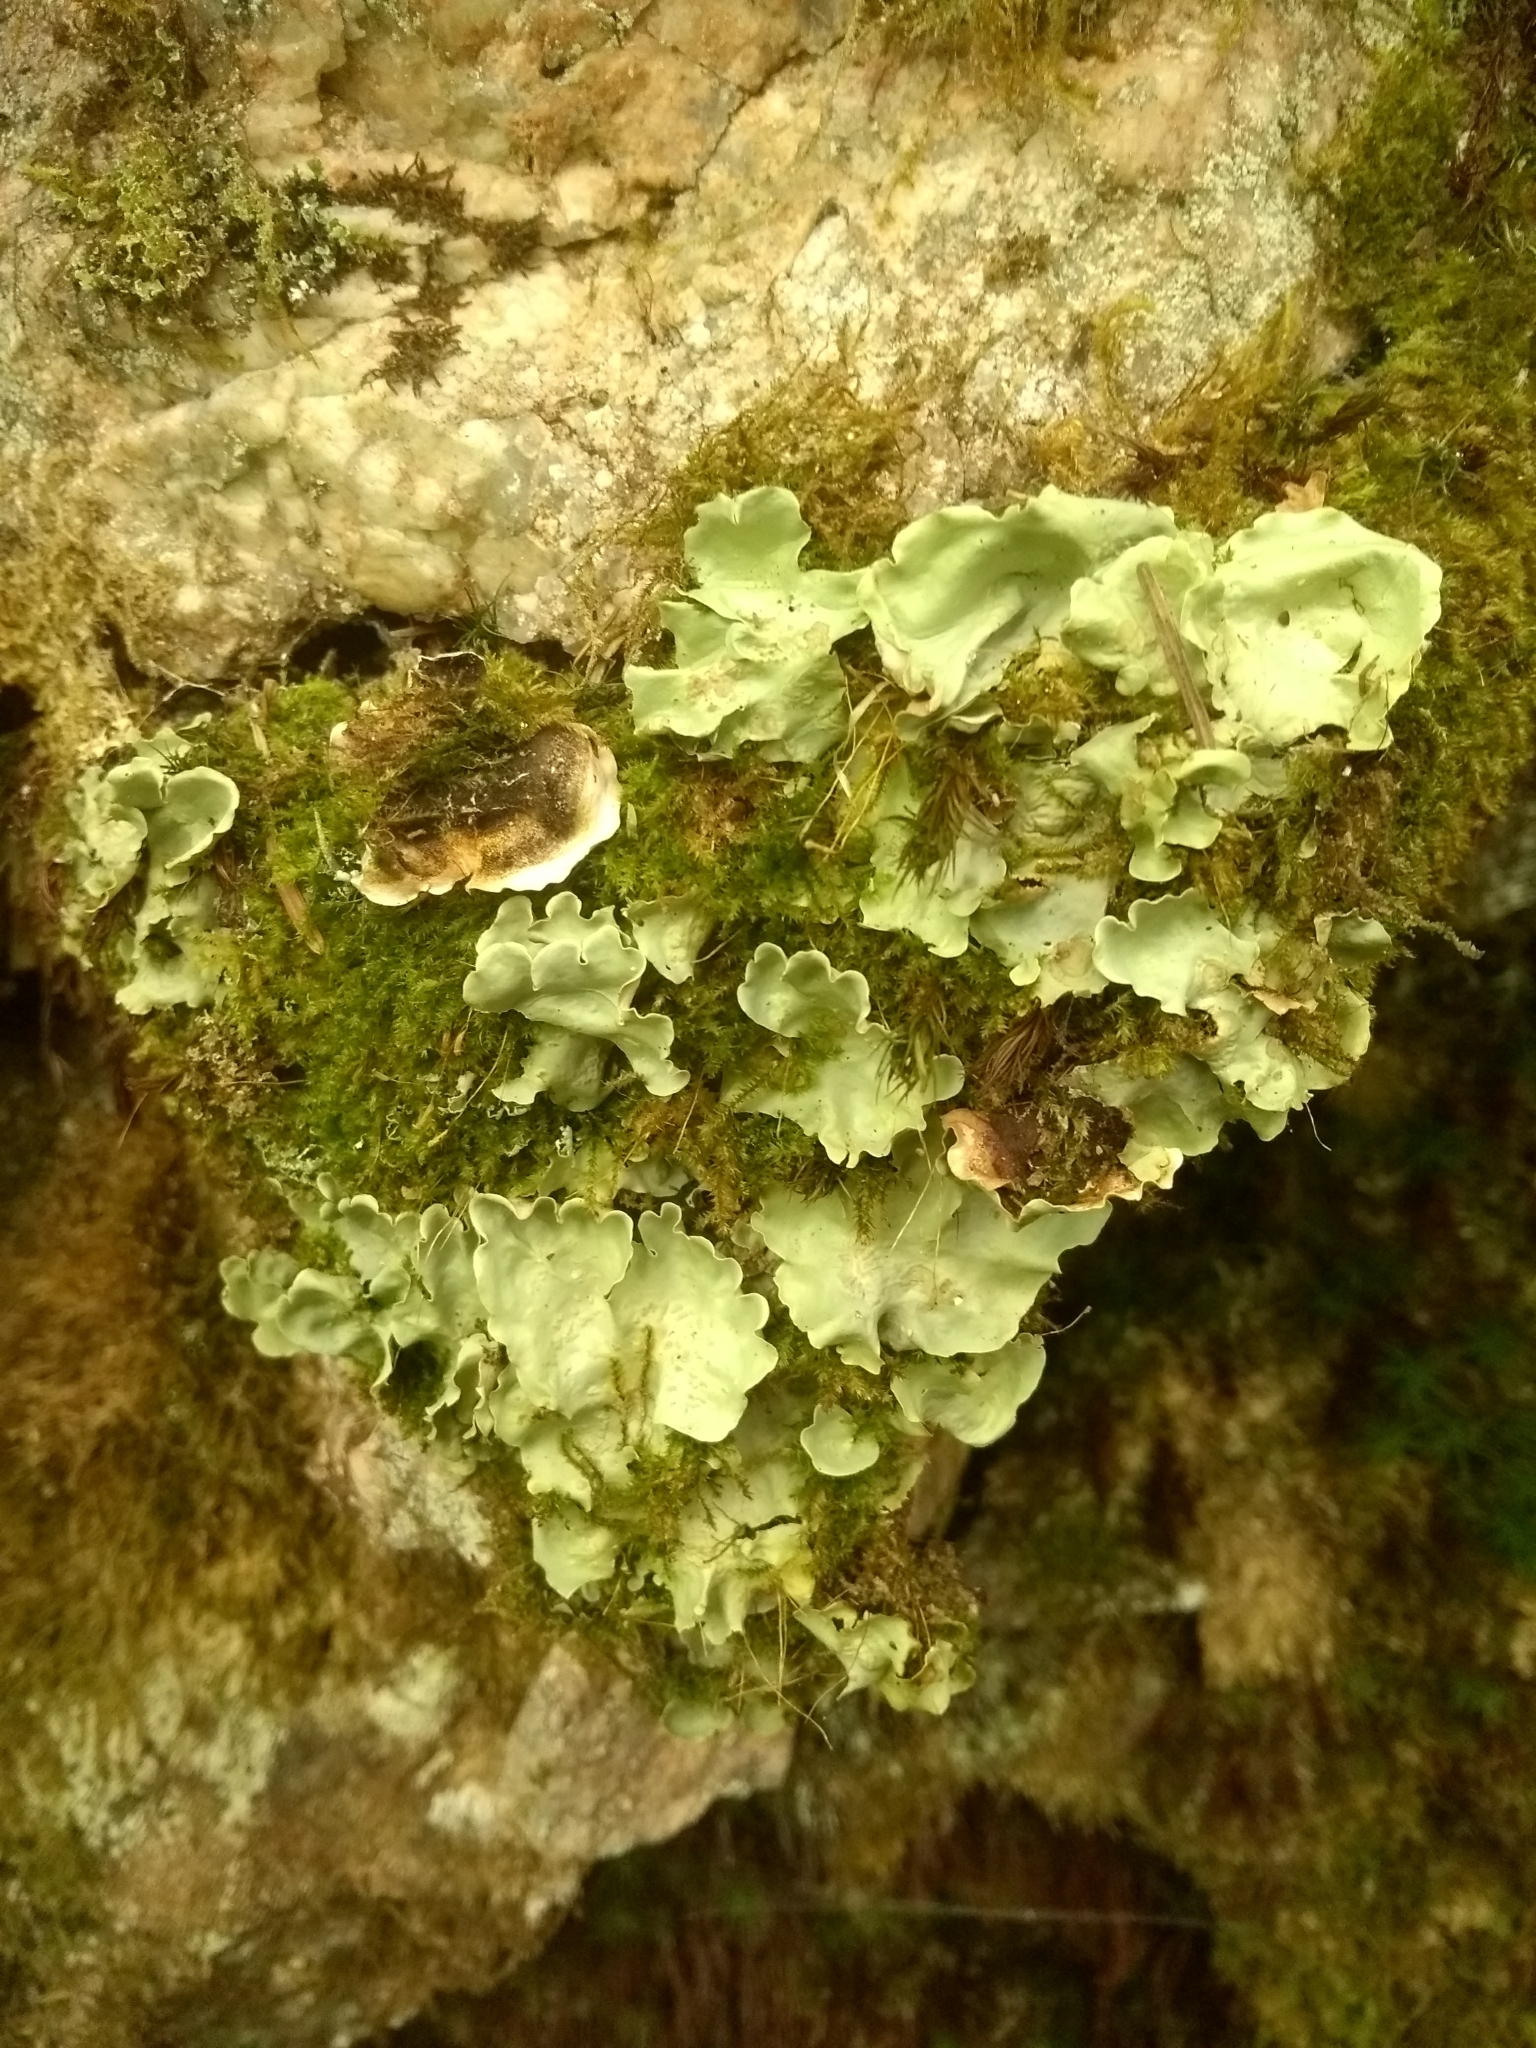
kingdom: Fungi
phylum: Ascomycota
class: Lecanoromycetes
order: Peltigerales
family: Nephromataceae
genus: Nephroma
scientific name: Nephroma arcticum
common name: Arctic kidney-lichen
